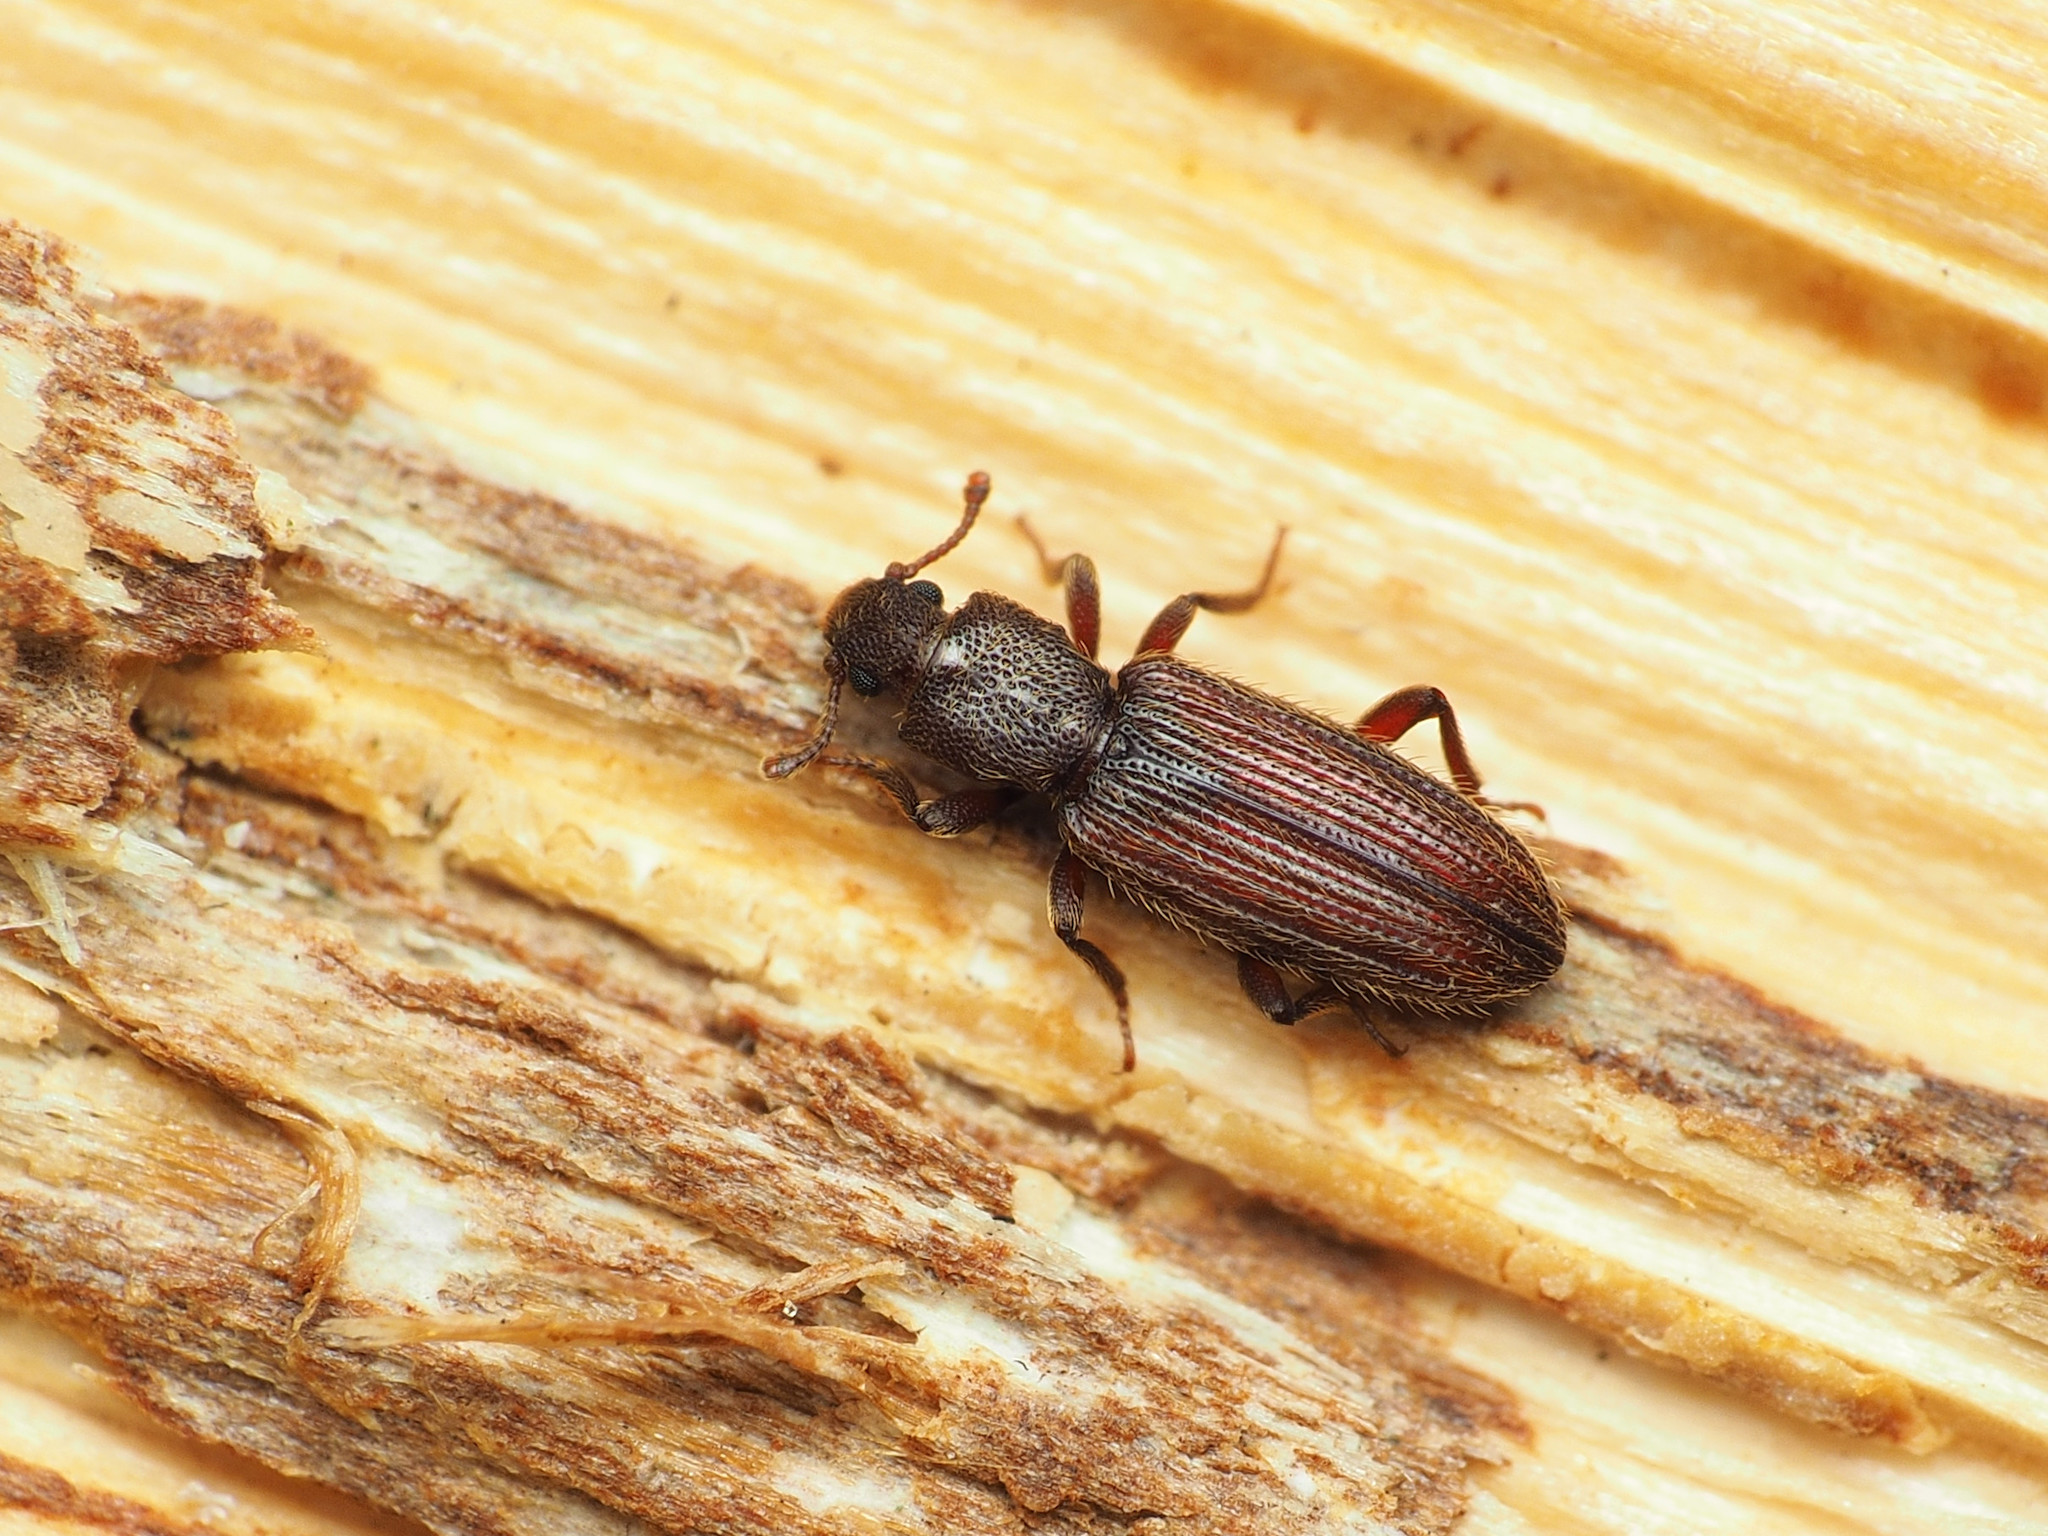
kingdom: Animalia
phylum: Arthropoda
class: Insecta
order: Coleoptera
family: Bothrideridae
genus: Bothrideres
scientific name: Bothrideres cryptus
